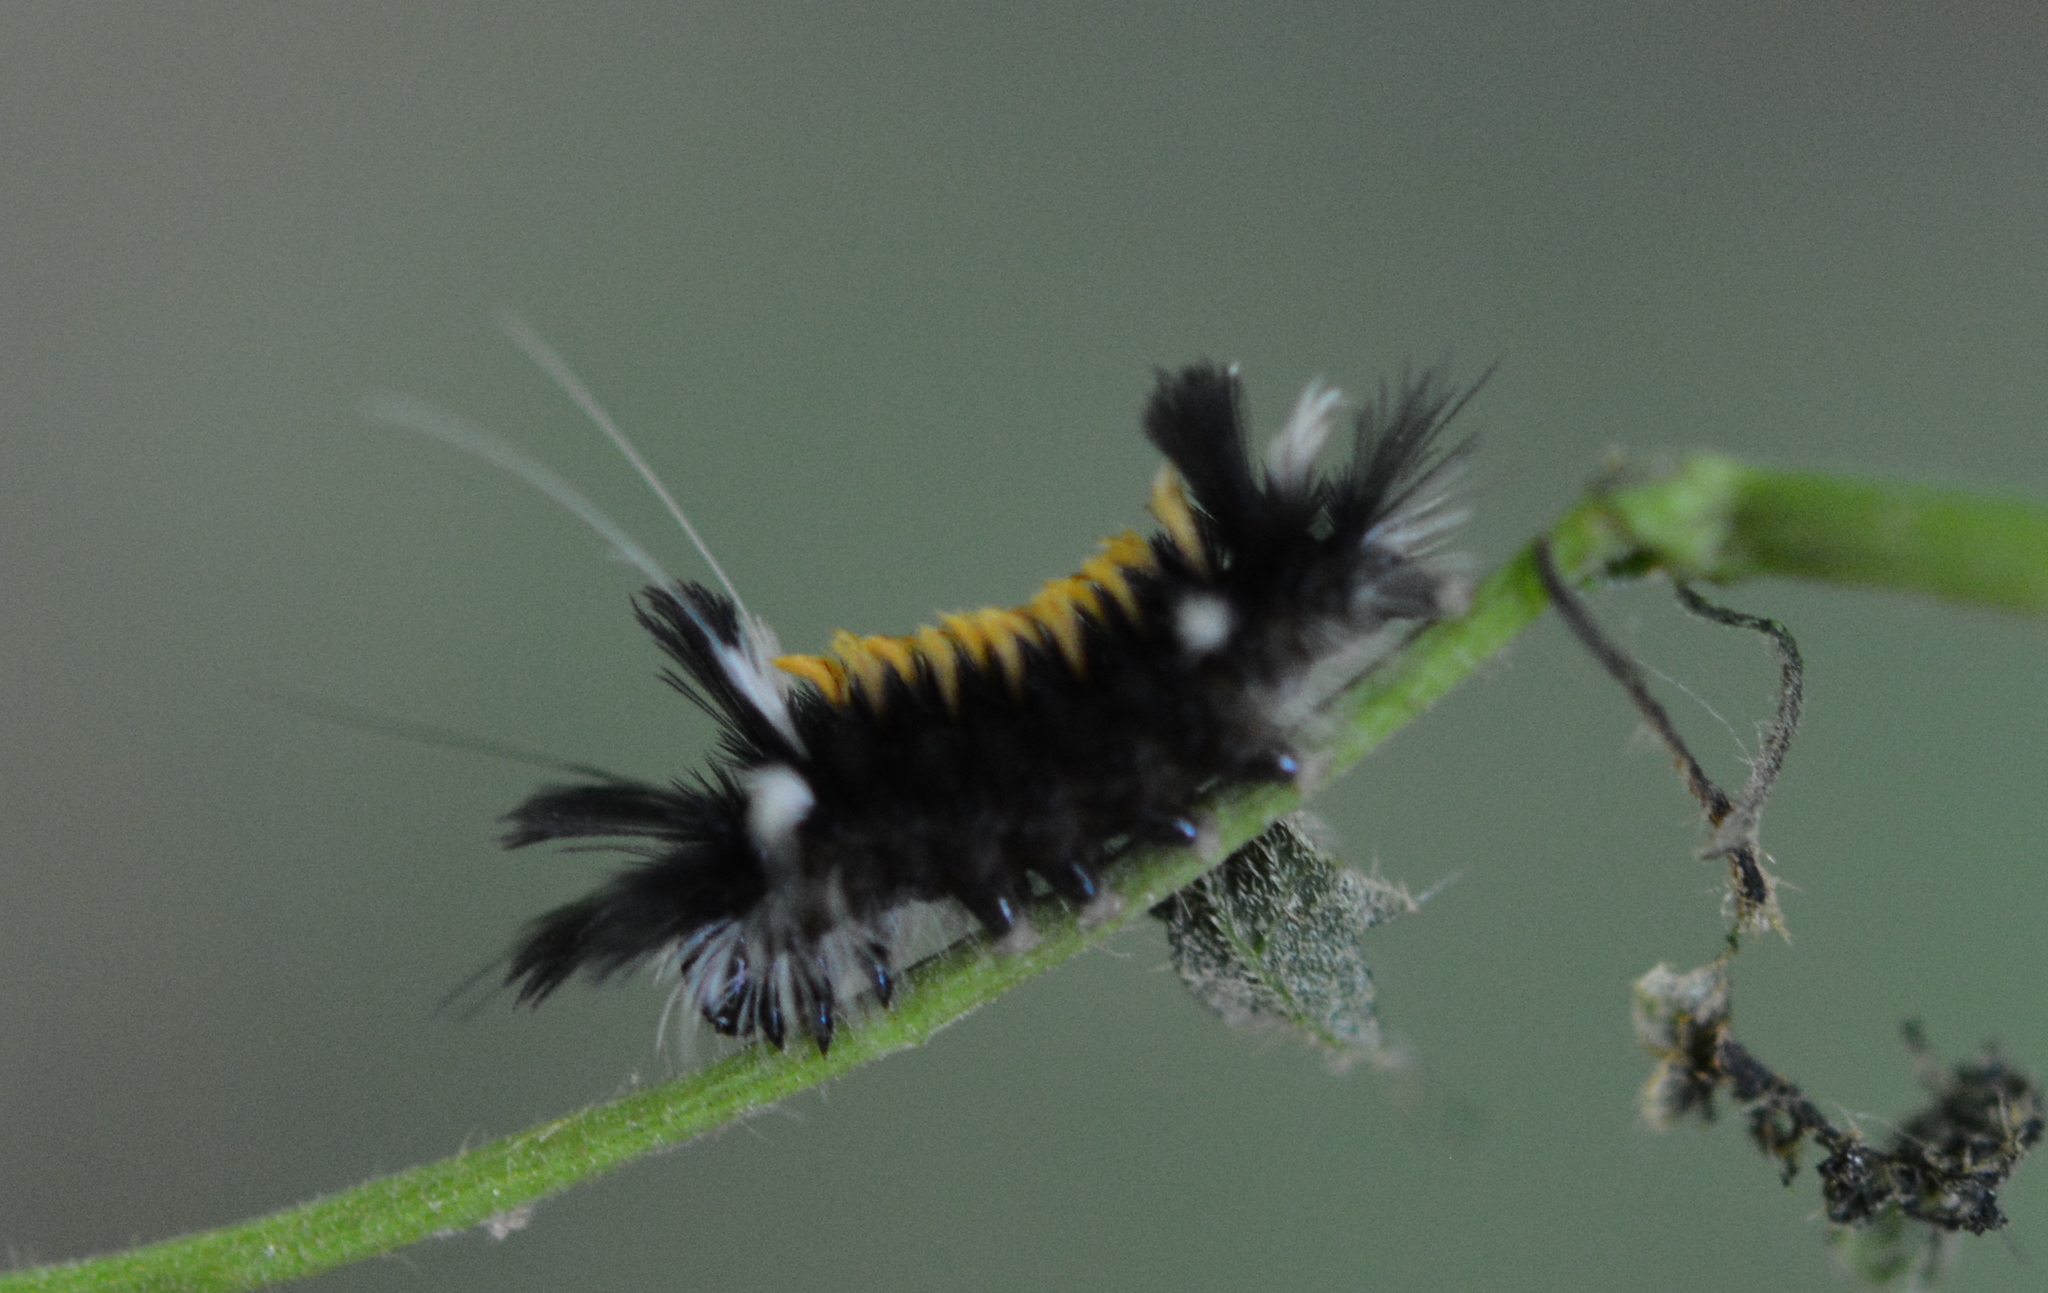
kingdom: Animalia
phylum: Arthropoda
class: Insecta
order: Lepidoptera
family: Erebidae
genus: Euchaetes
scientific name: Euchaetes egle
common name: Milkweed tussock moth
